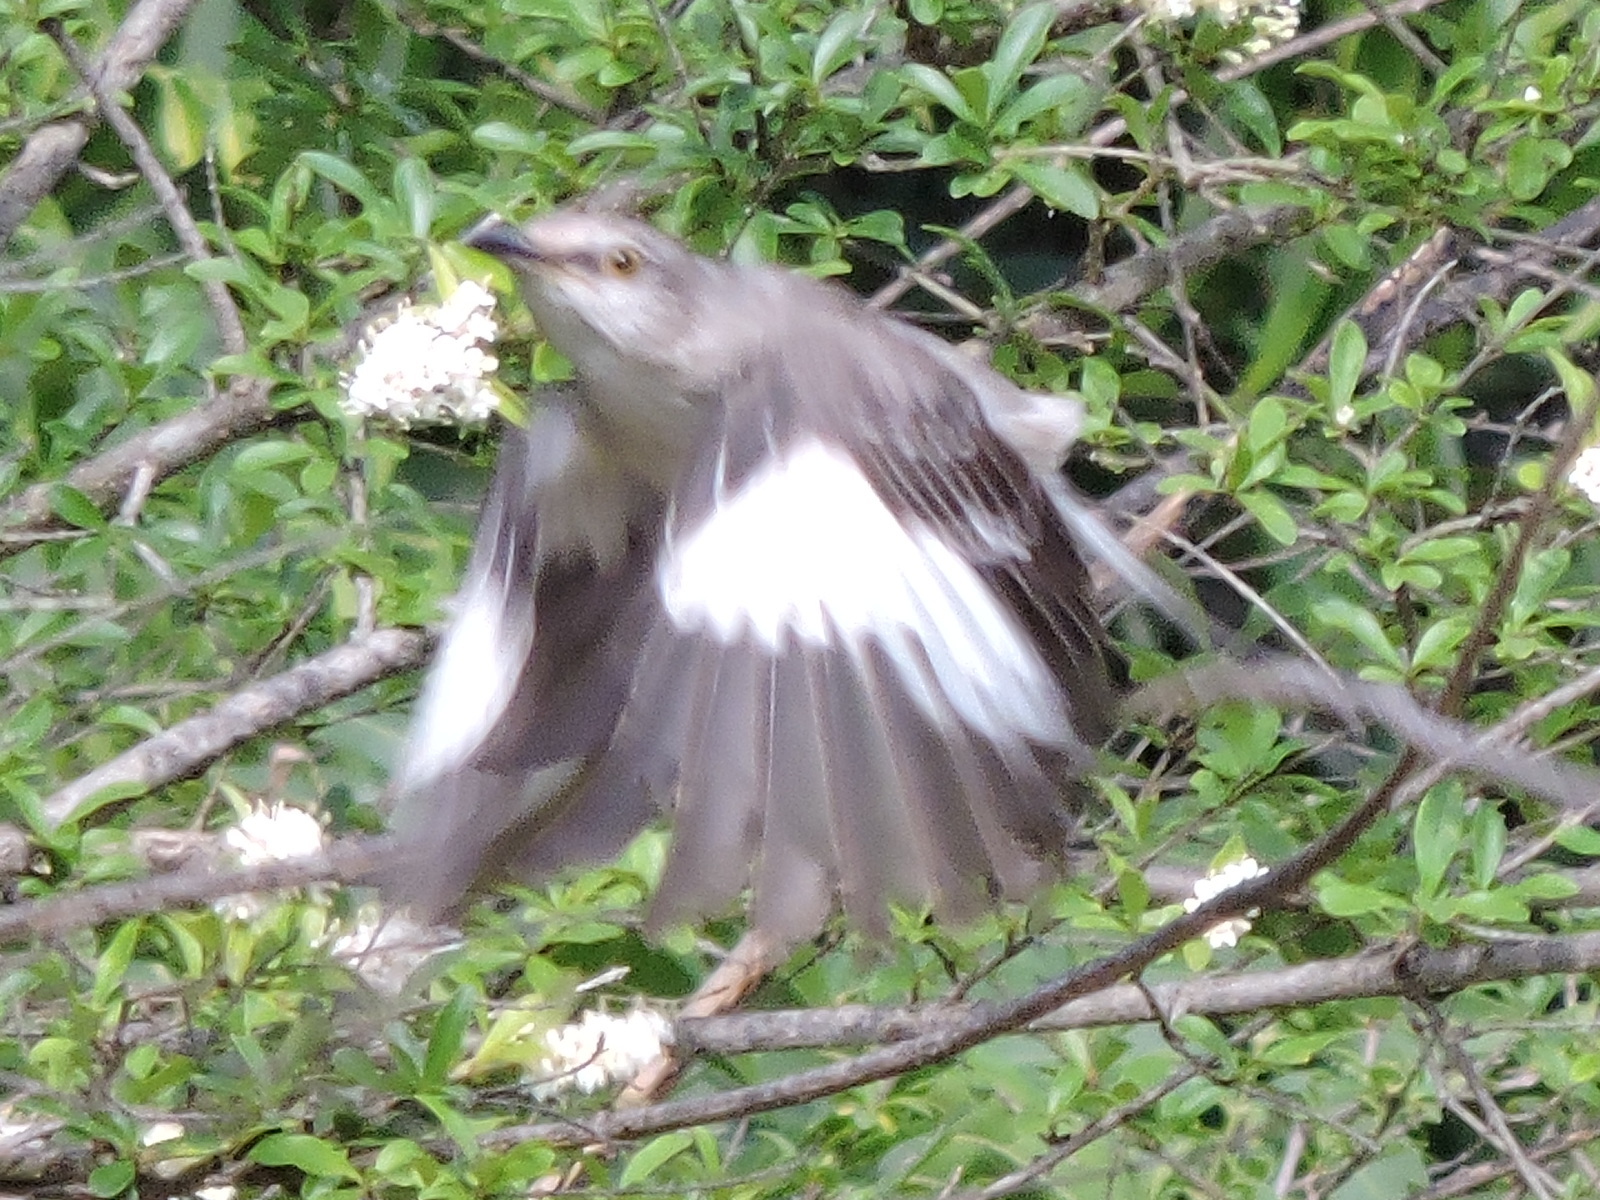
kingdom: Animalia
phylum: Chordata
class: Aves
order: Passeriformes
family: Mimidae
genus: Mimus
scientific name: Mimus polyglottos
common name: Northern mockingbird
